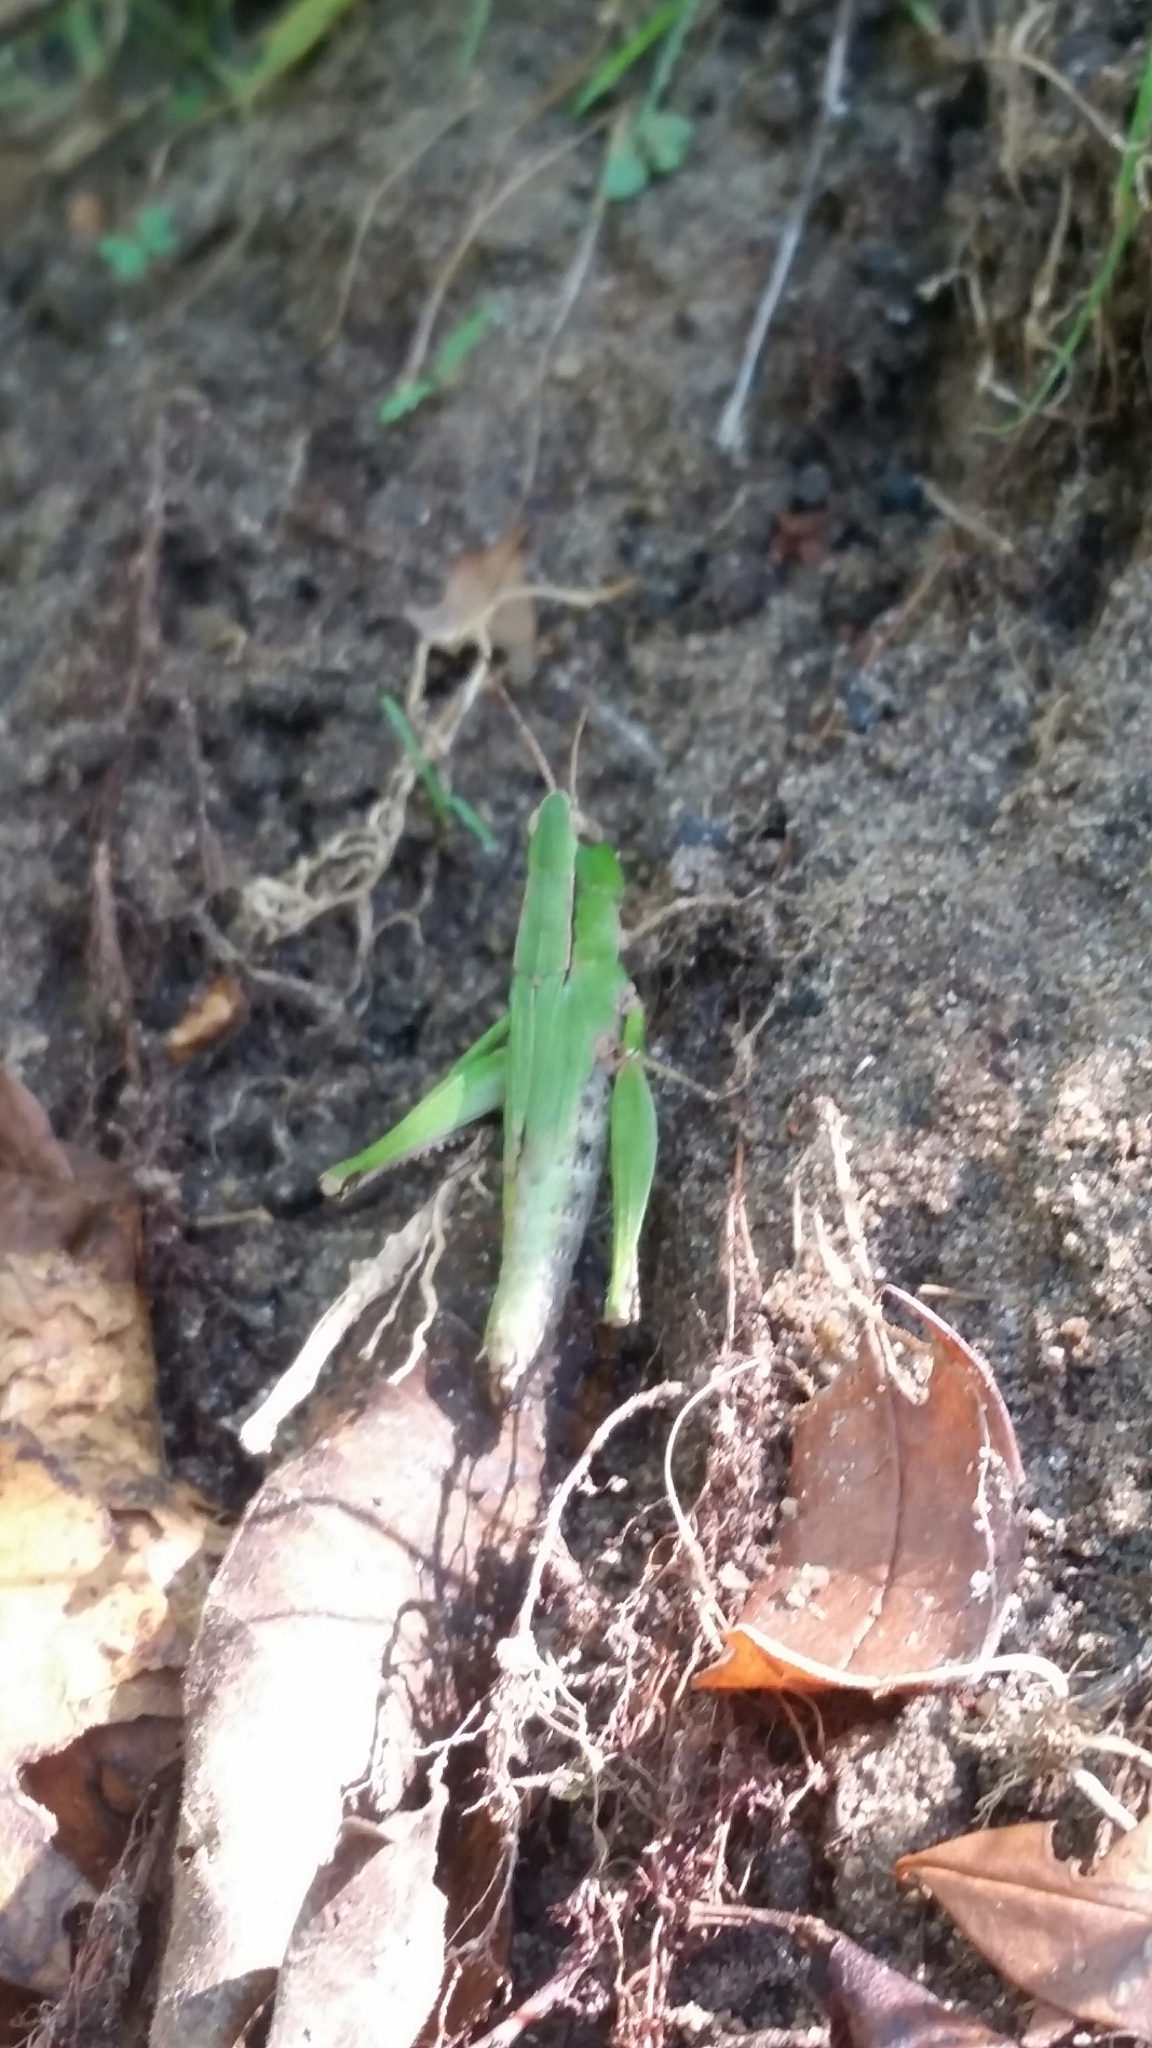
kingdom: Animalia
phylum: Arthropoda
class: Insecta
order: Orthoptera
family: Acrididae
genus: Dichromorpha
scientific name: Dichromorpha viridis
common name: Short-winged green grasshopper
